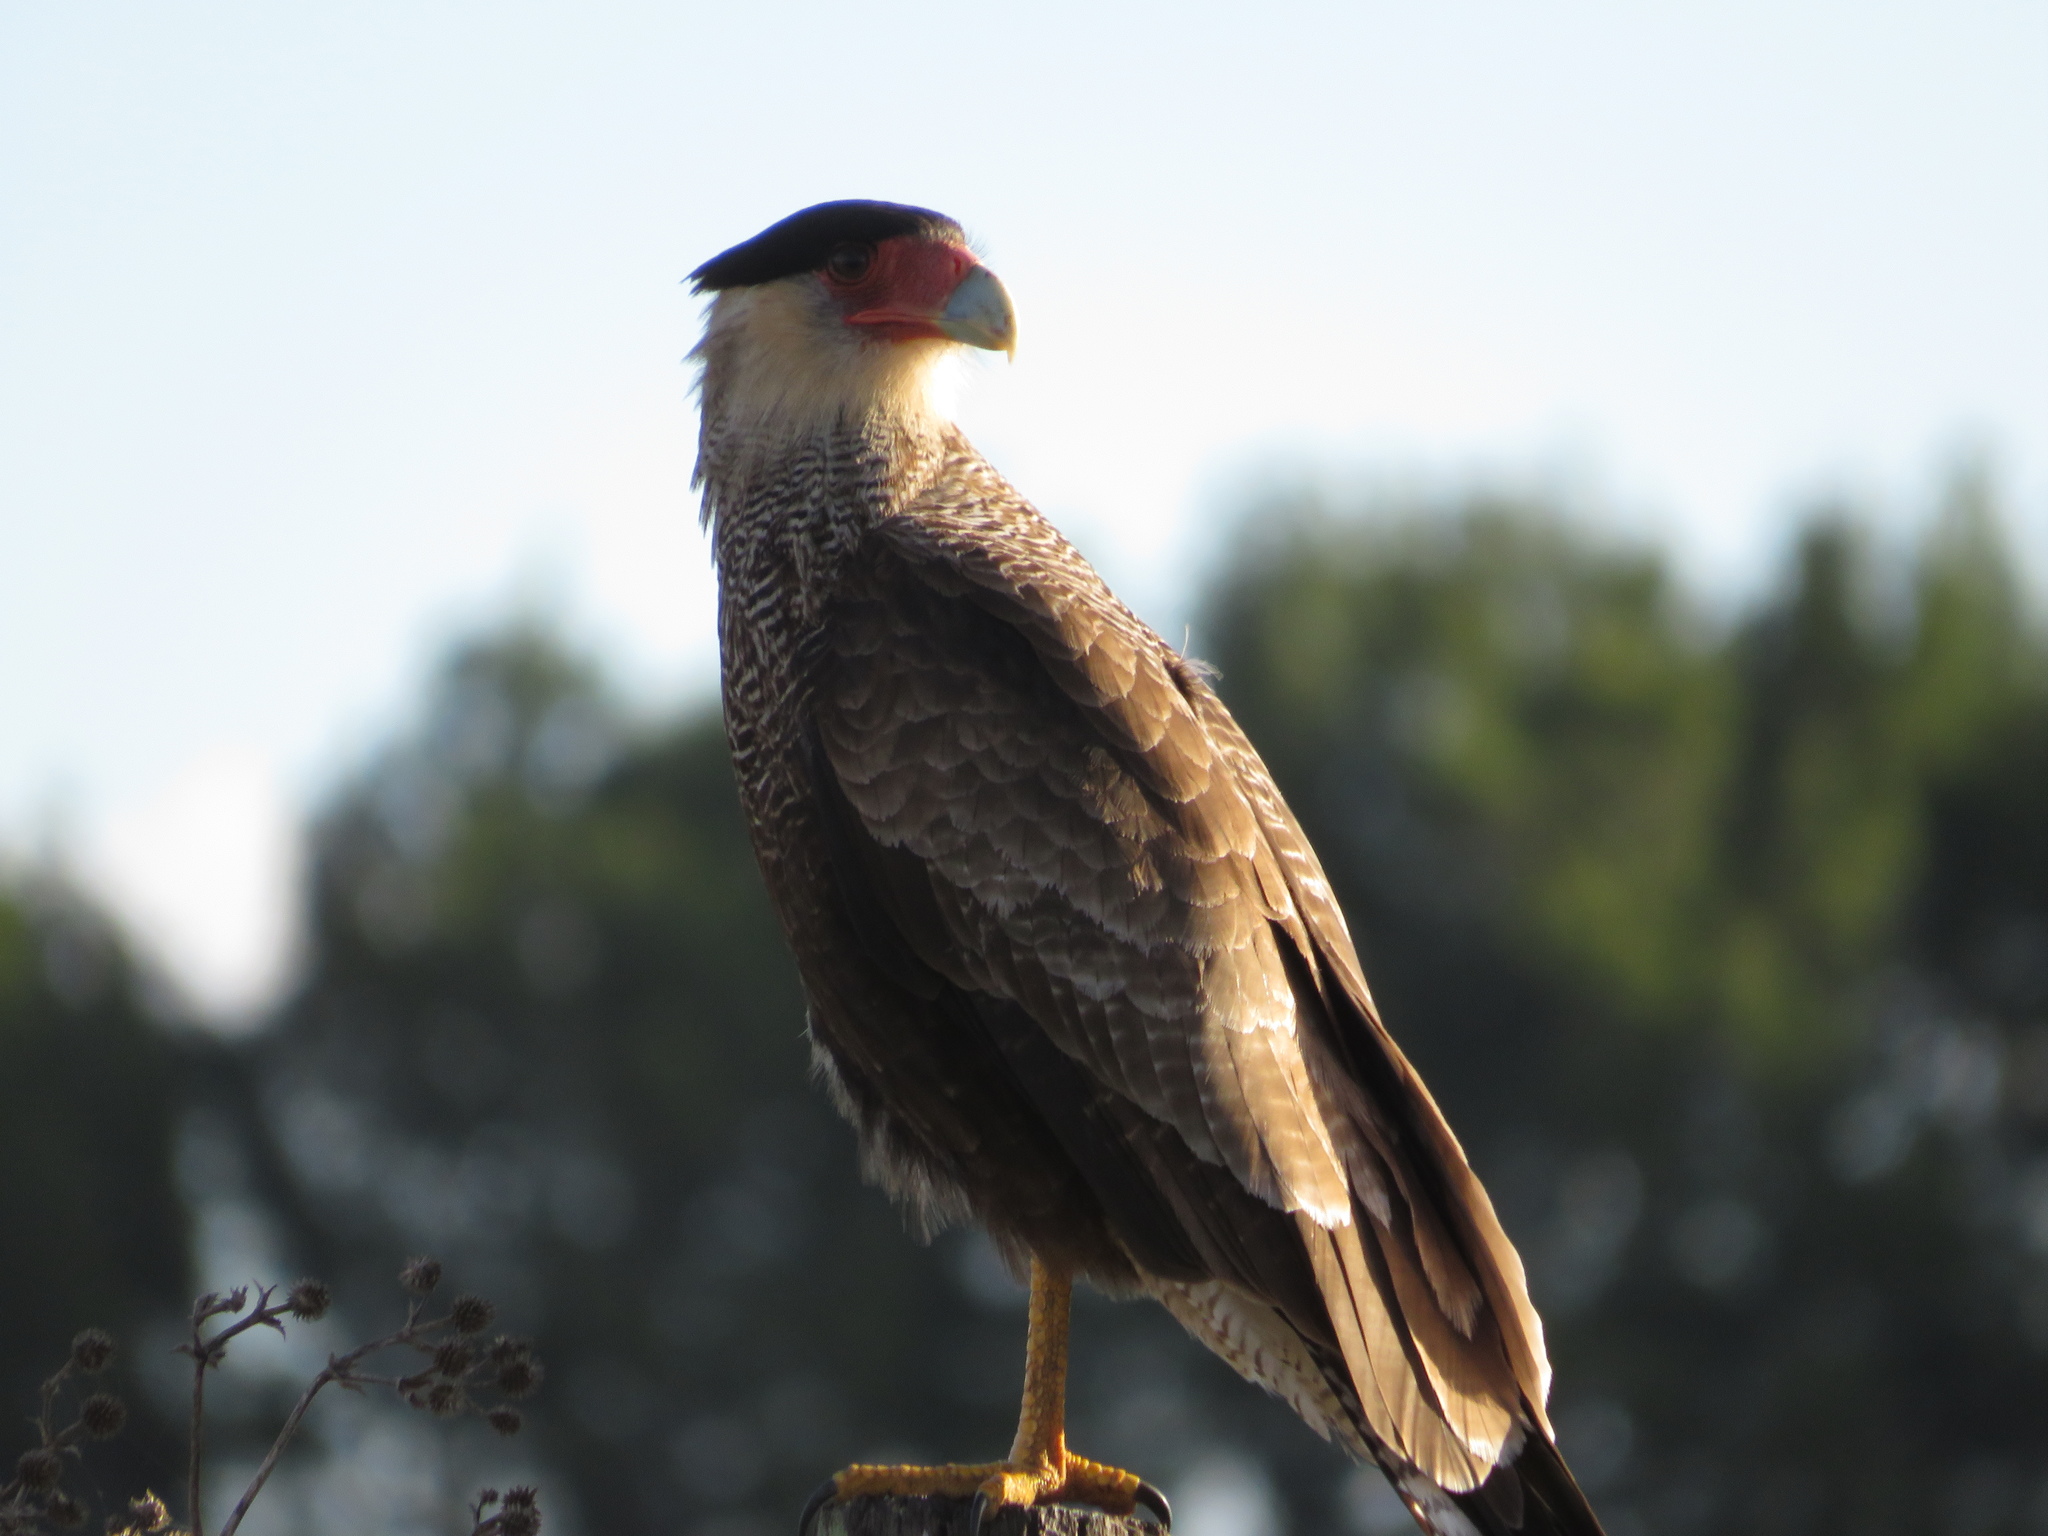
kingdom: Animalia
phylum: Chordata
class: Aves
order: Falconiformes
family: Falconidae
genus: Caracara
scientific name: Caracara plancus
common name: Southern caracara
